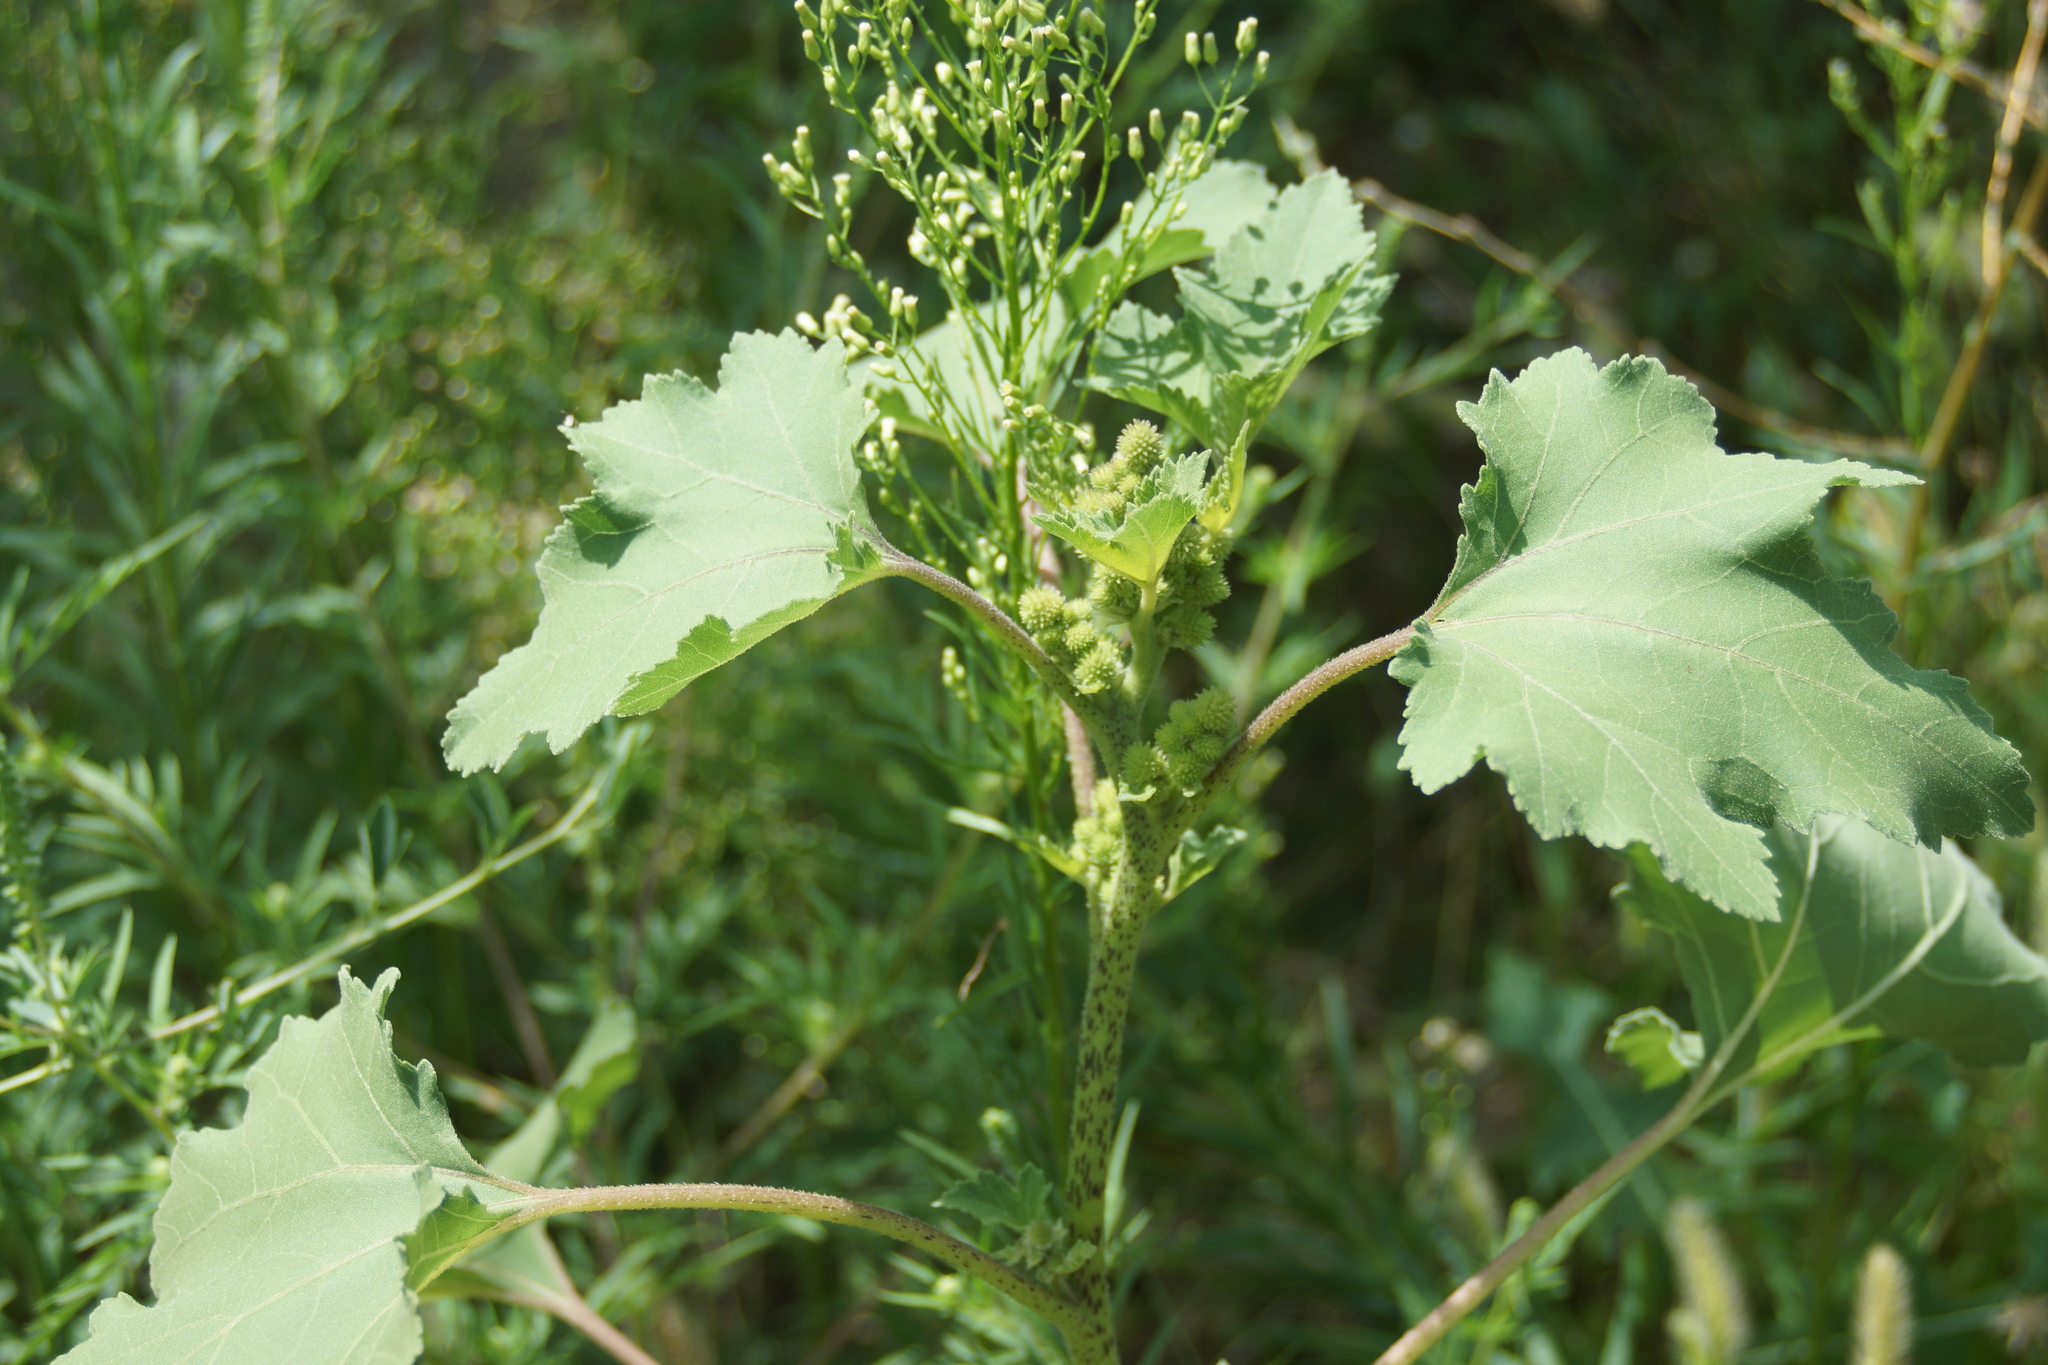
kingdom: Plantae
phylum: Tracheophyta
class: Magnoliopsida
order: Asterales
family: Asteraceae
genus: Xanthium
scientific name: Xanthium orientale
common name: Californian burr
